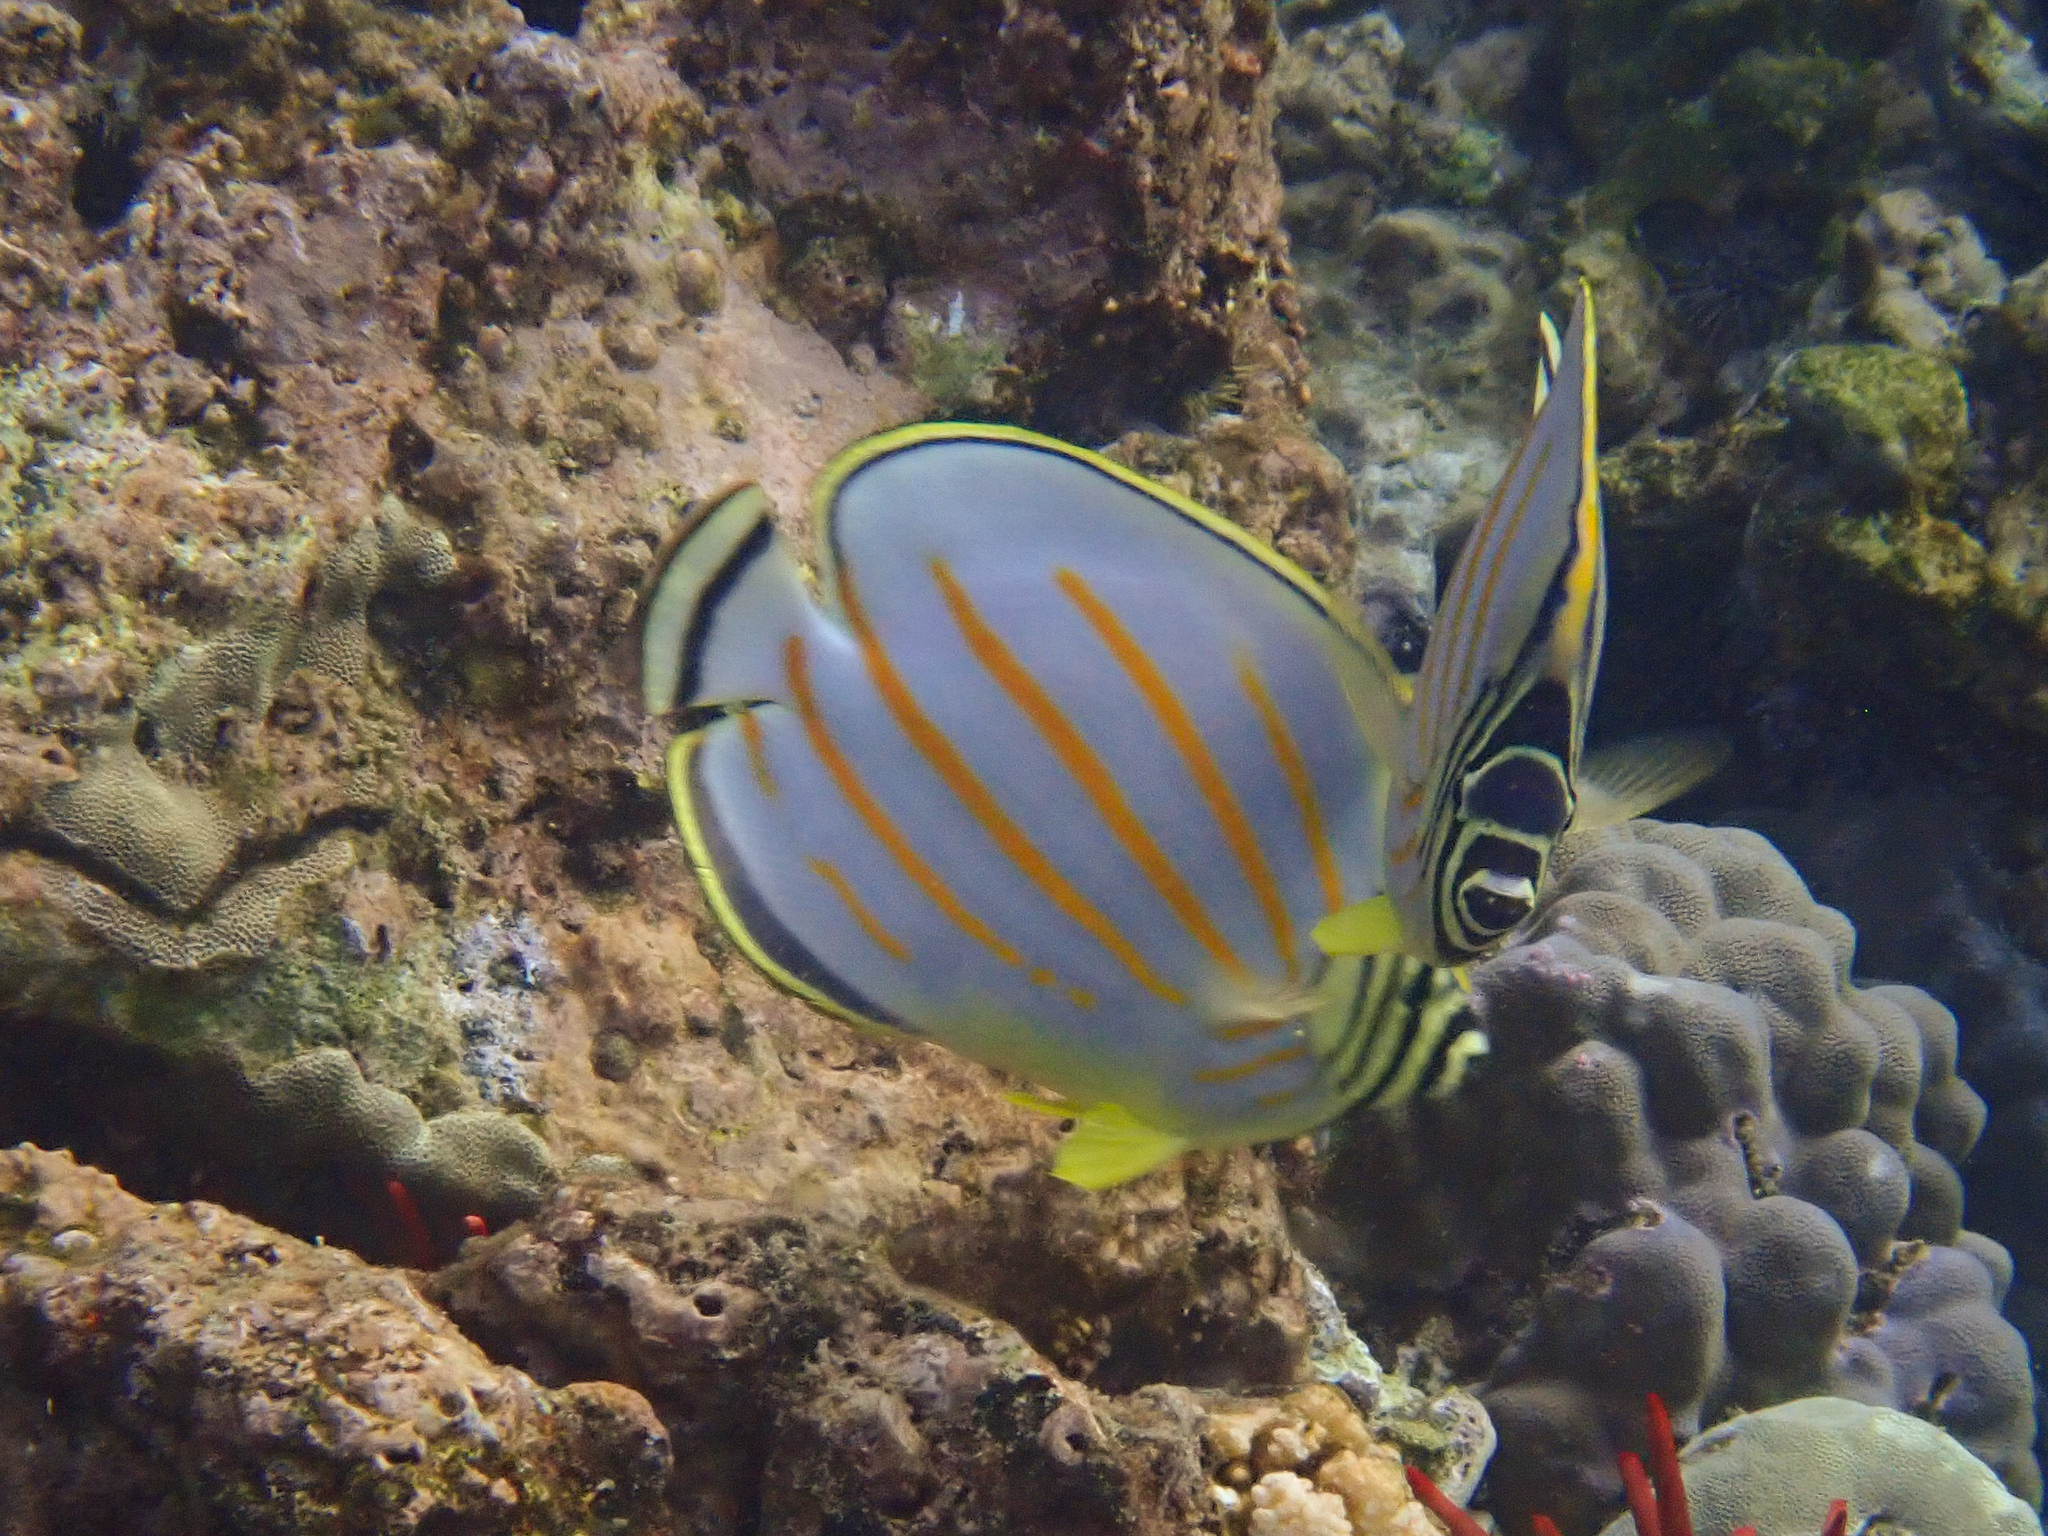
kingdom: Animalia
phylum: Chordata
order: Perciformes
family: Chaetodontidae
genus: Chaetodon
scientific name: Chaetodon ornatissimus
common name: Ornate butterflyfish
